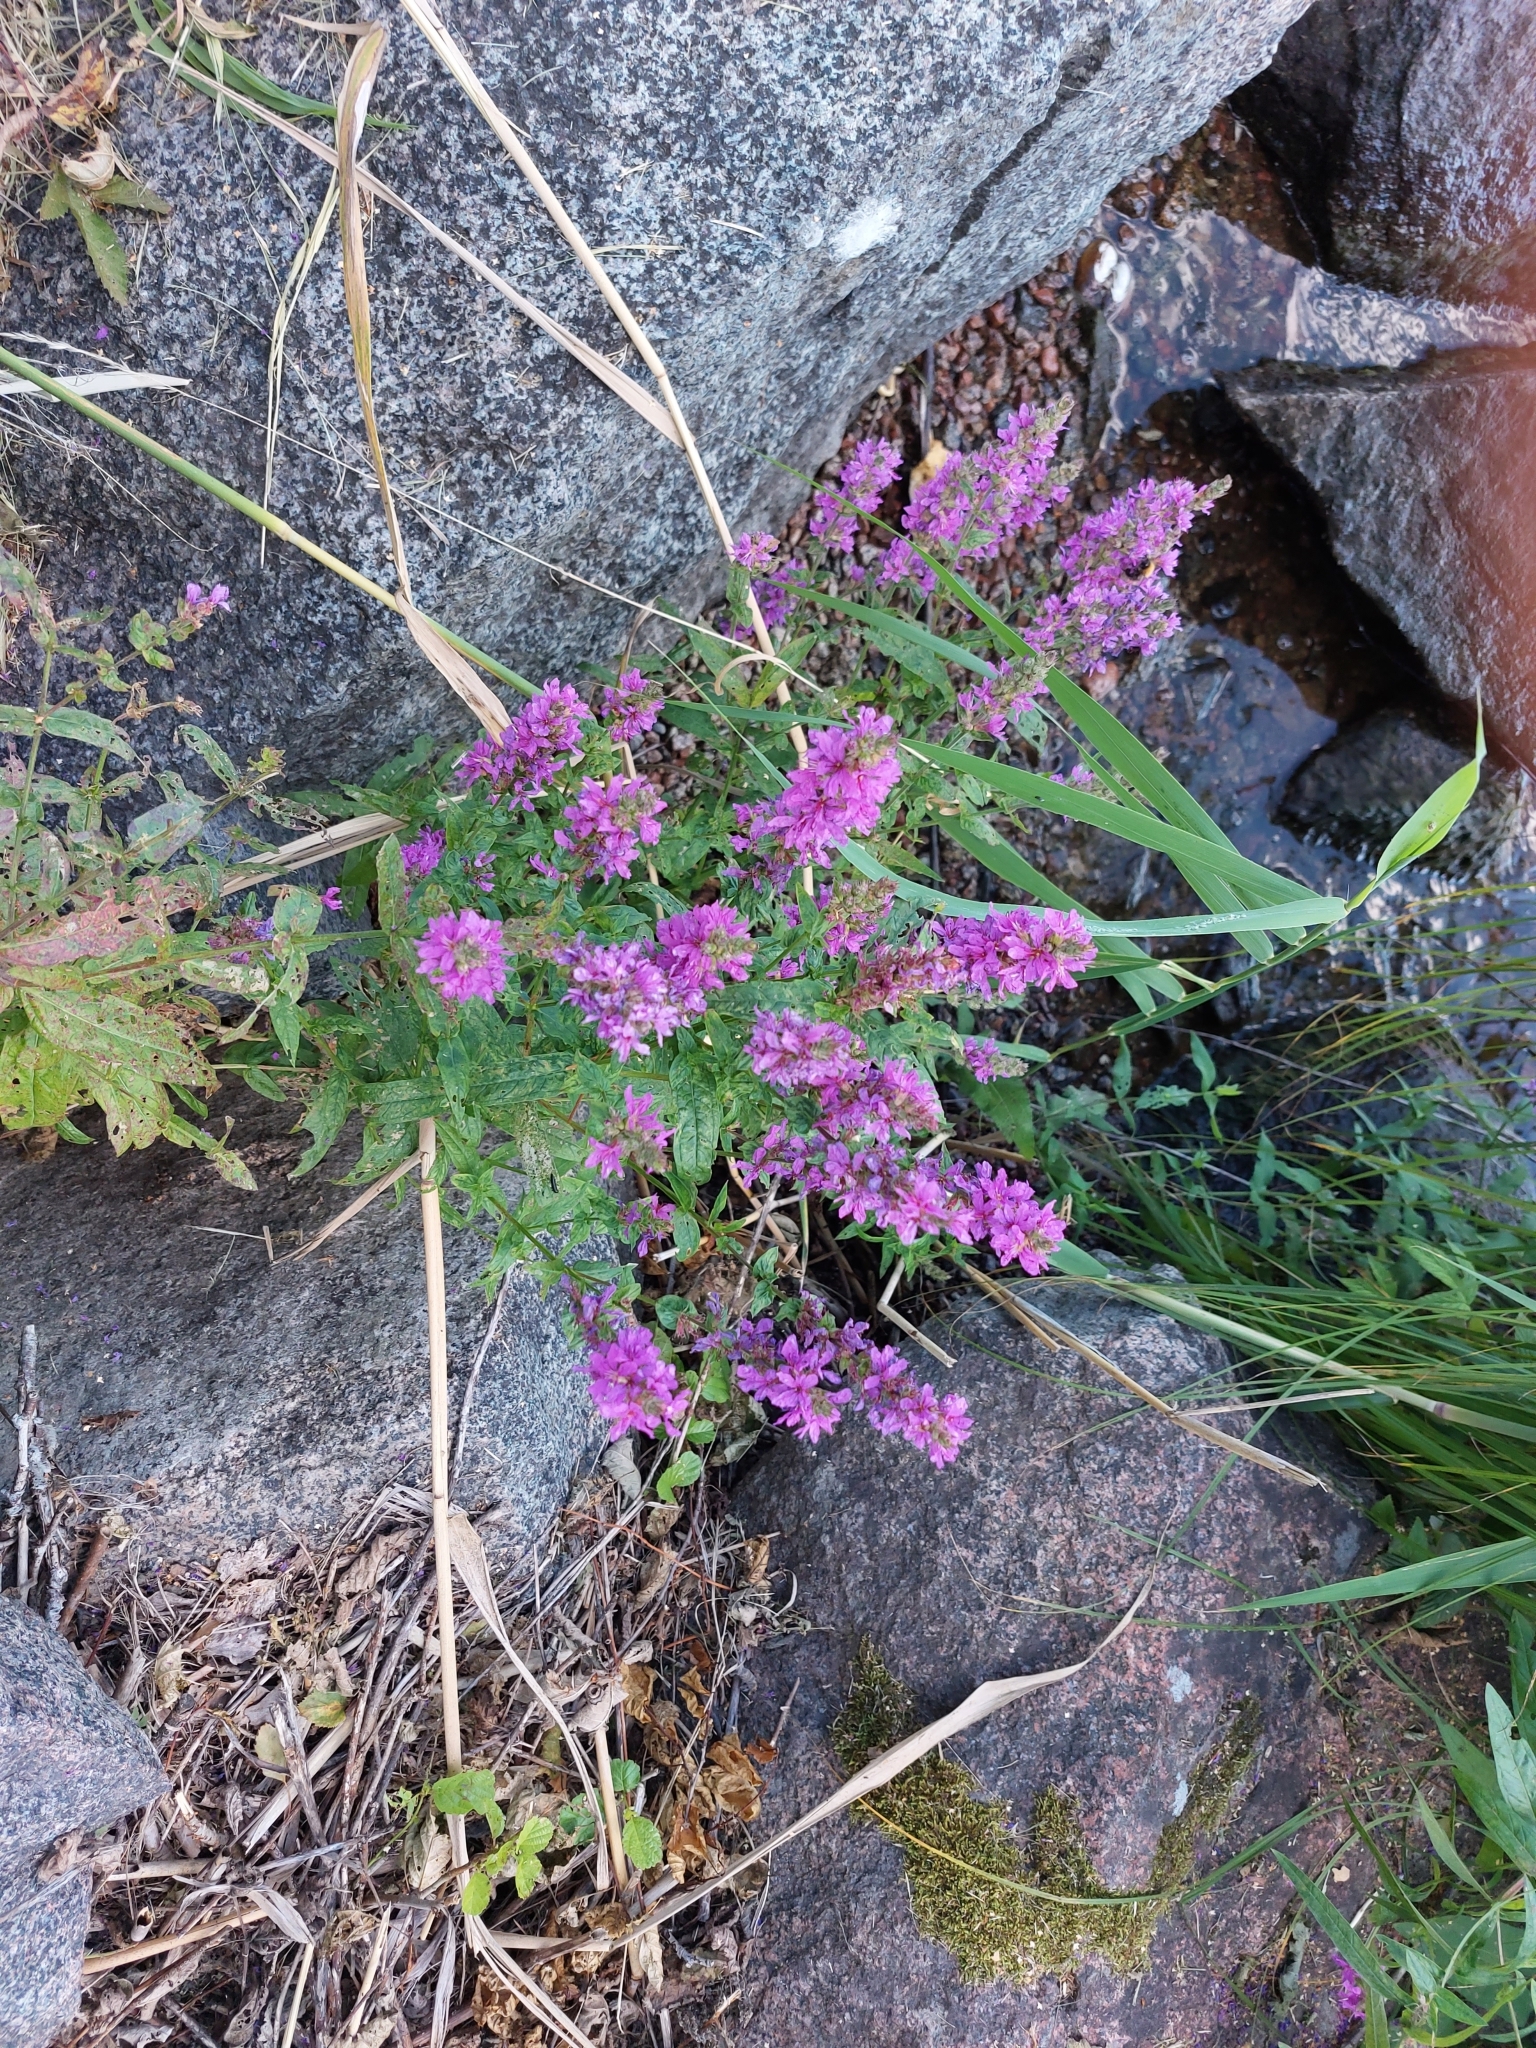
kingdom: Plantae
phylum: Tracheophyta
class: Magnoliopsida
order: Myrtales
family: Lythraceae
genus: Lythrum
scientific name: Lythrum salicaria
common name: Purple loosestrife
